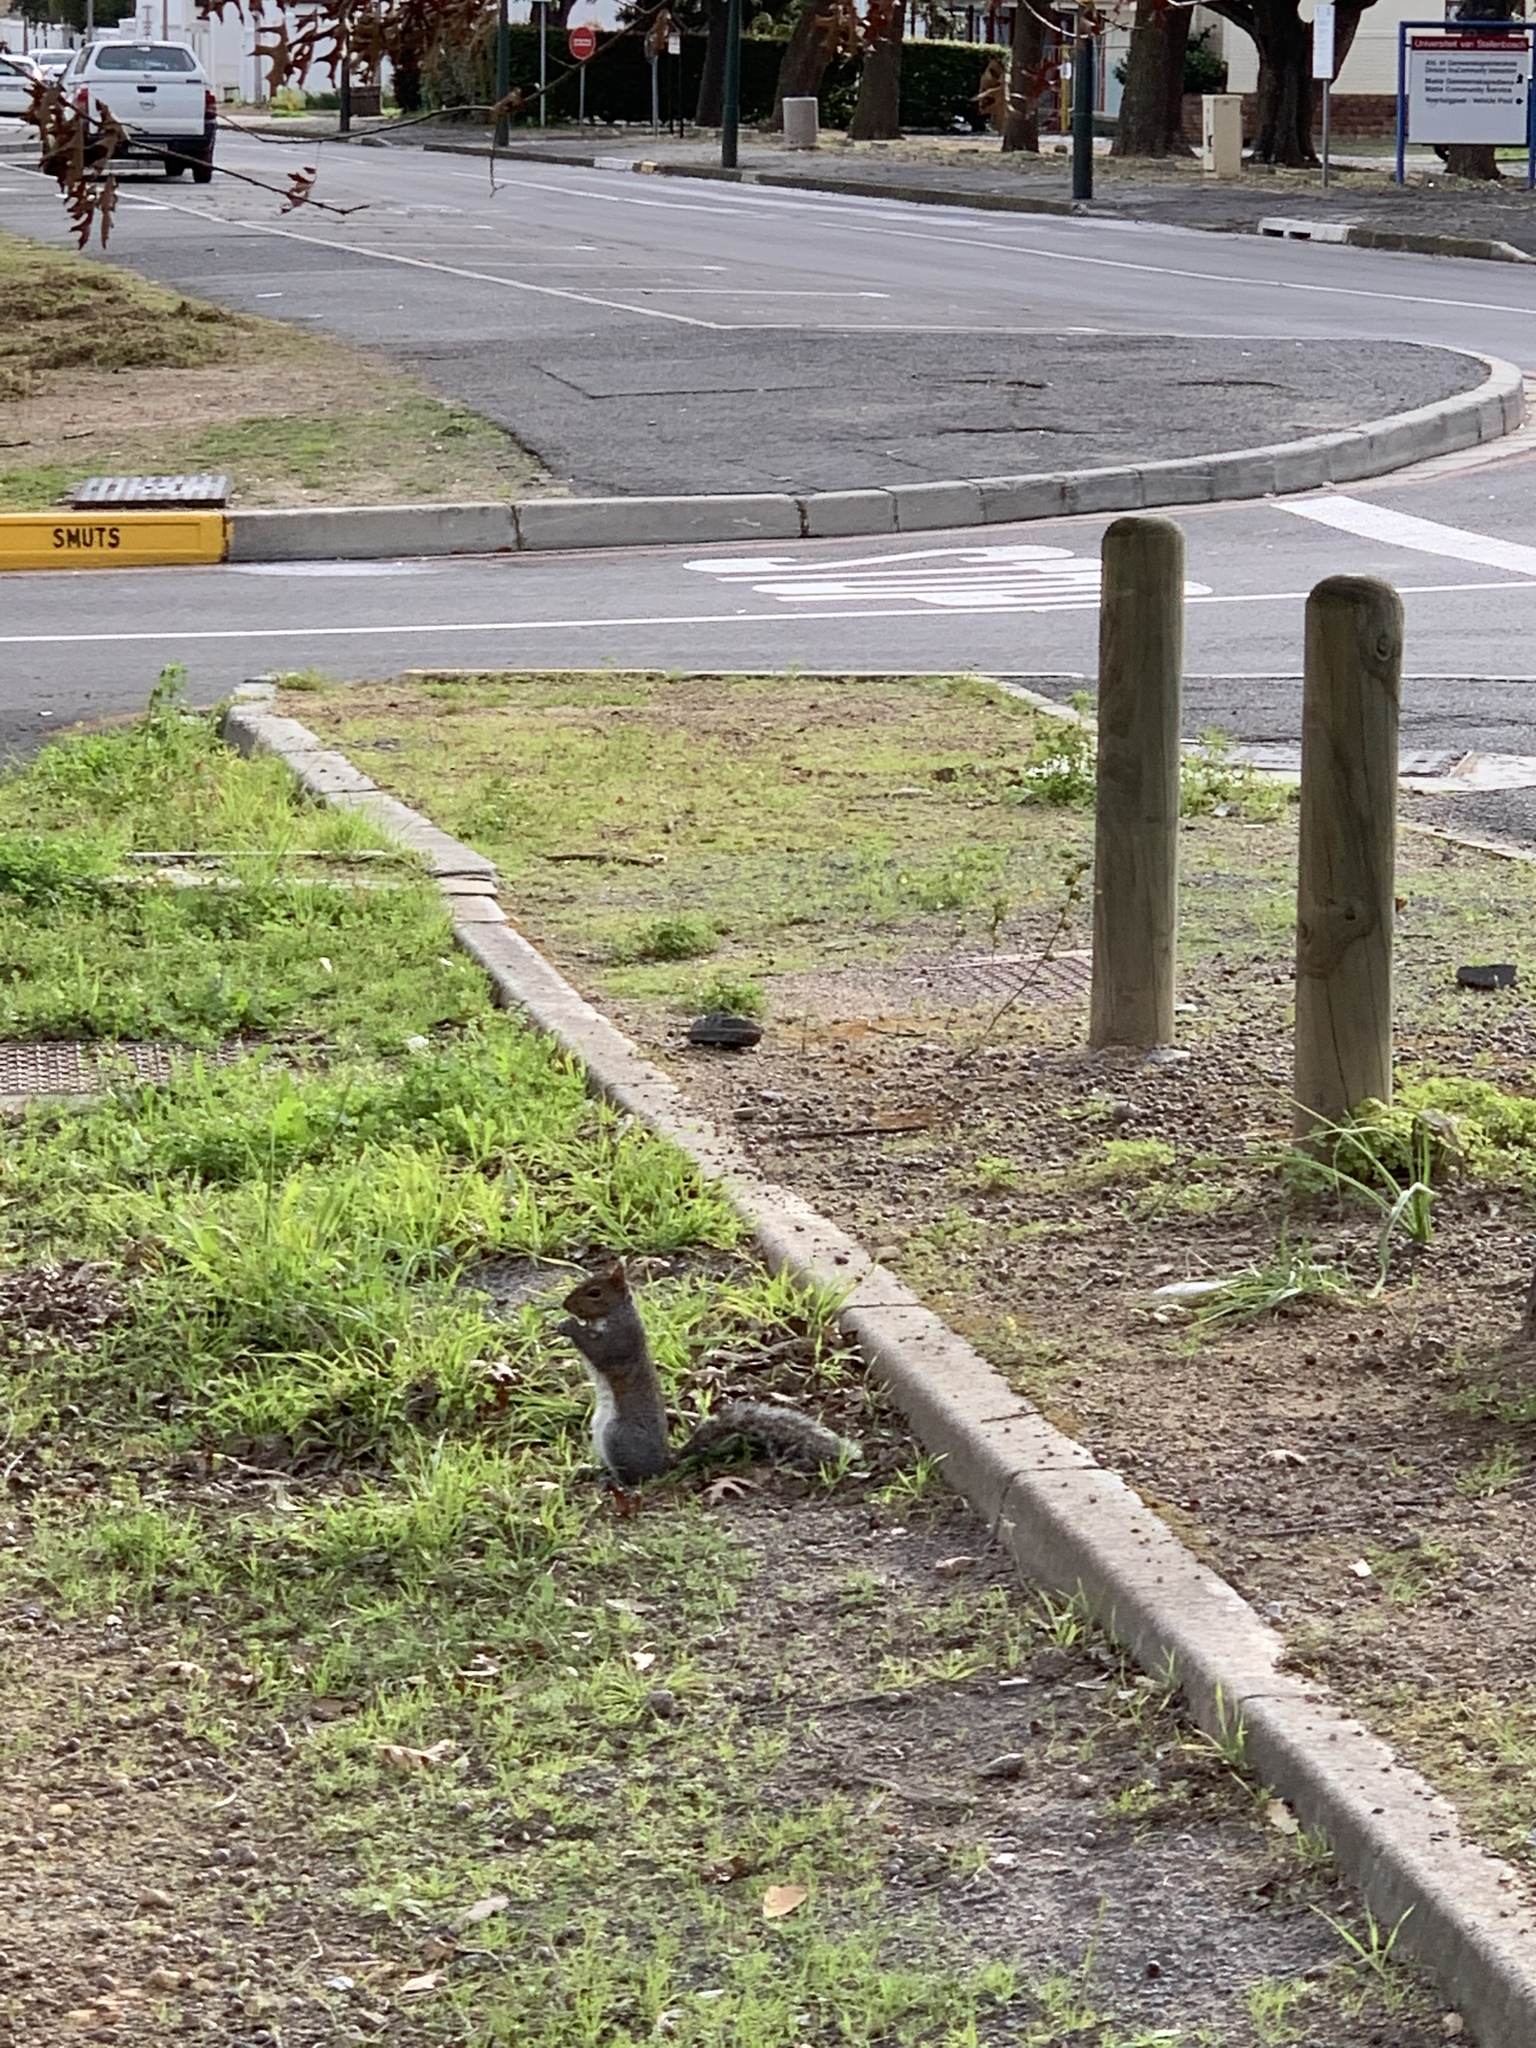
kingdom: Animalia
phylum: Chordata
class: Mammalia
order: Rodentia
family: Sciuridae
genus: Sciurus
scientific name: Sciurus carolinensis
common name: Eastern gray squirrel
